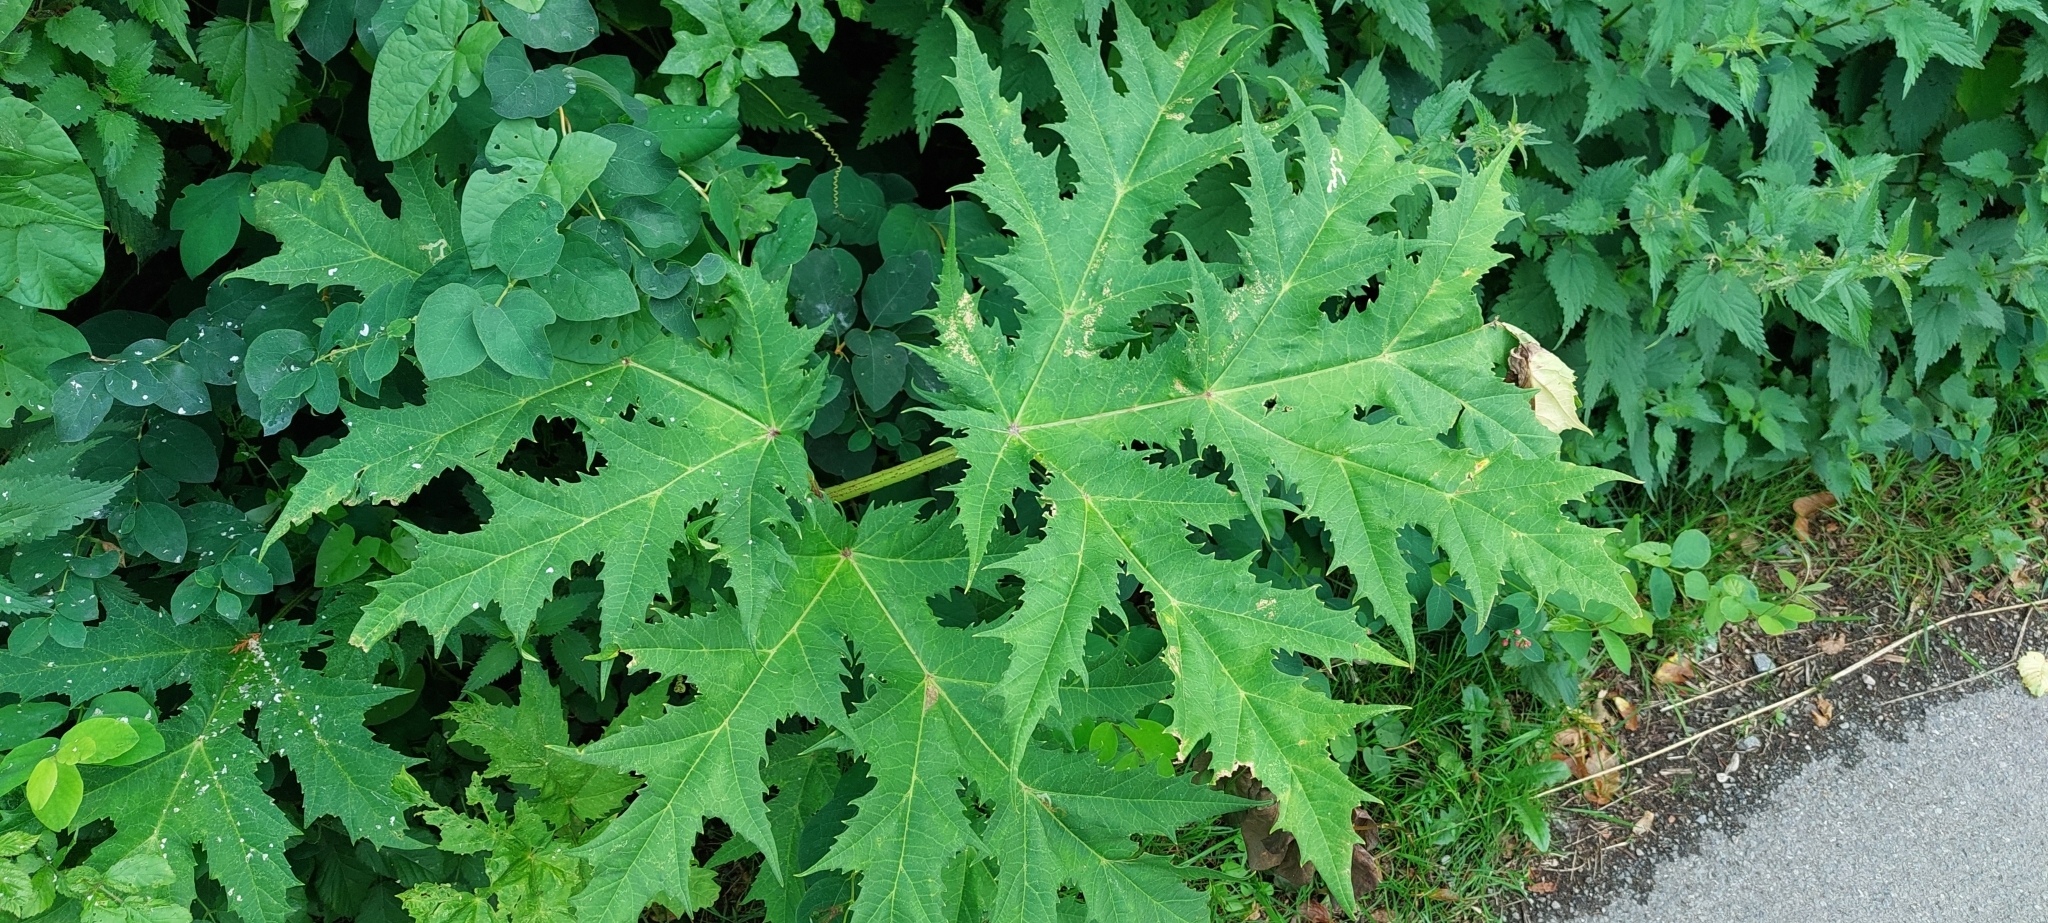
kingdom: Plantae
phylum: Tracheophyta
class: Magnoliopsida
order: Apiales
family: Apiaceae
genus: Heracleum
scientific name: Heracleum mantegazzianum
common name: Giant hogweed
